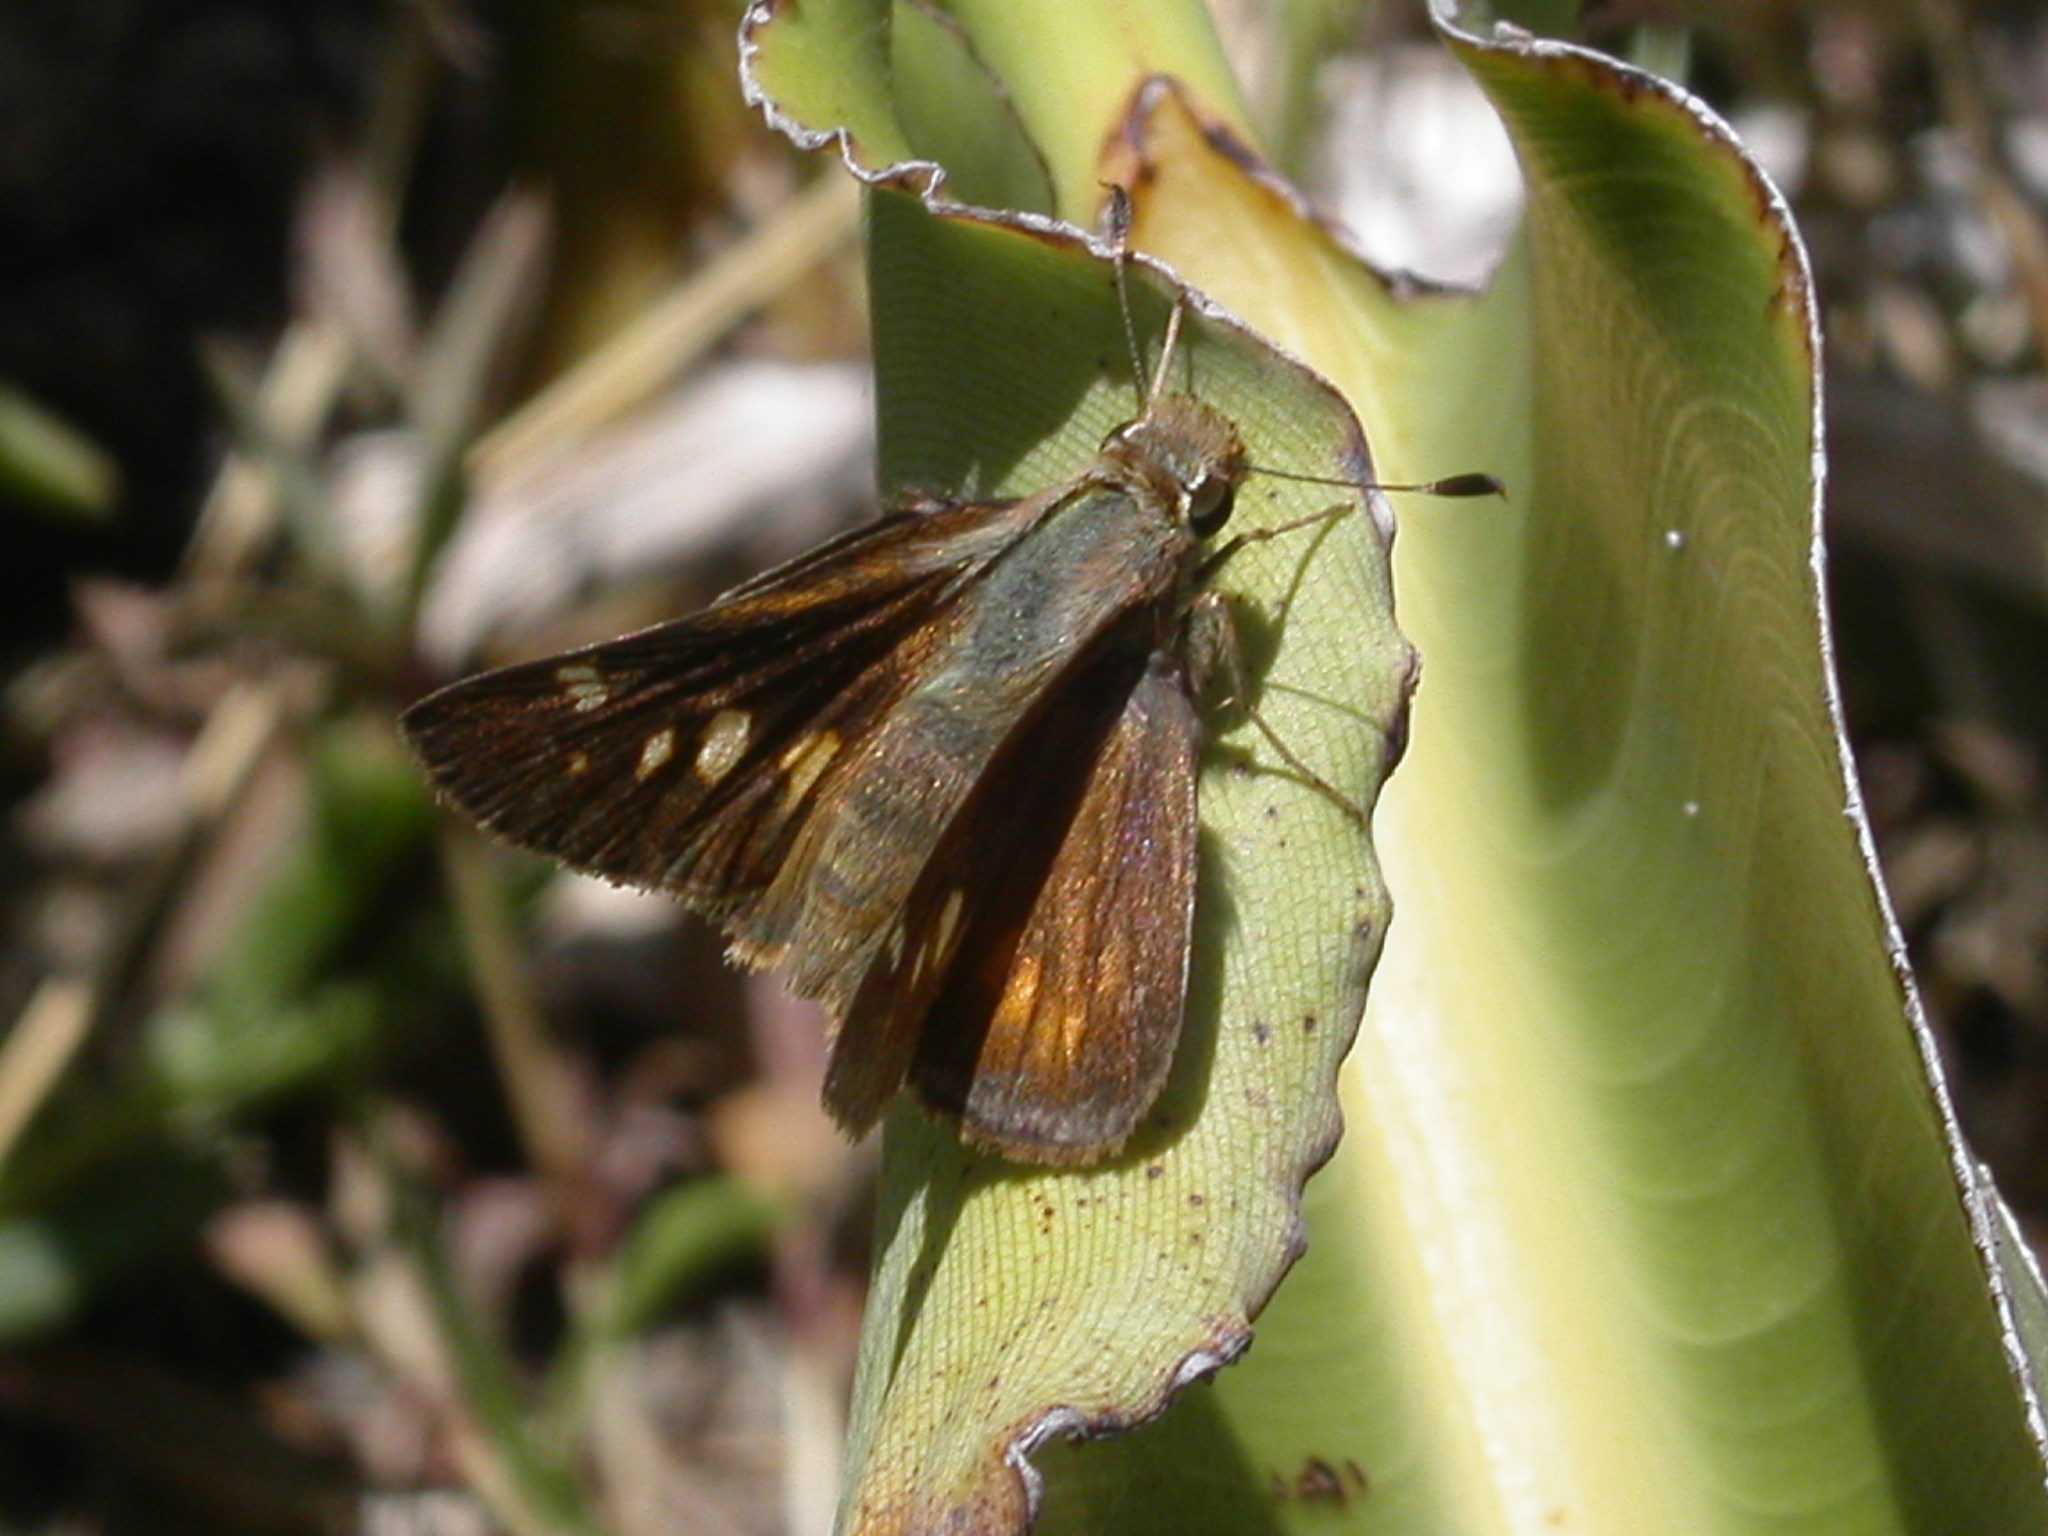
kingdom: Animalia
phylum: Arthropoda
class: Insecta
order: Lepidoptera
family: Hesperiidae
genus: Lon
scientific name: Lon melane
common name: Umber skipper
